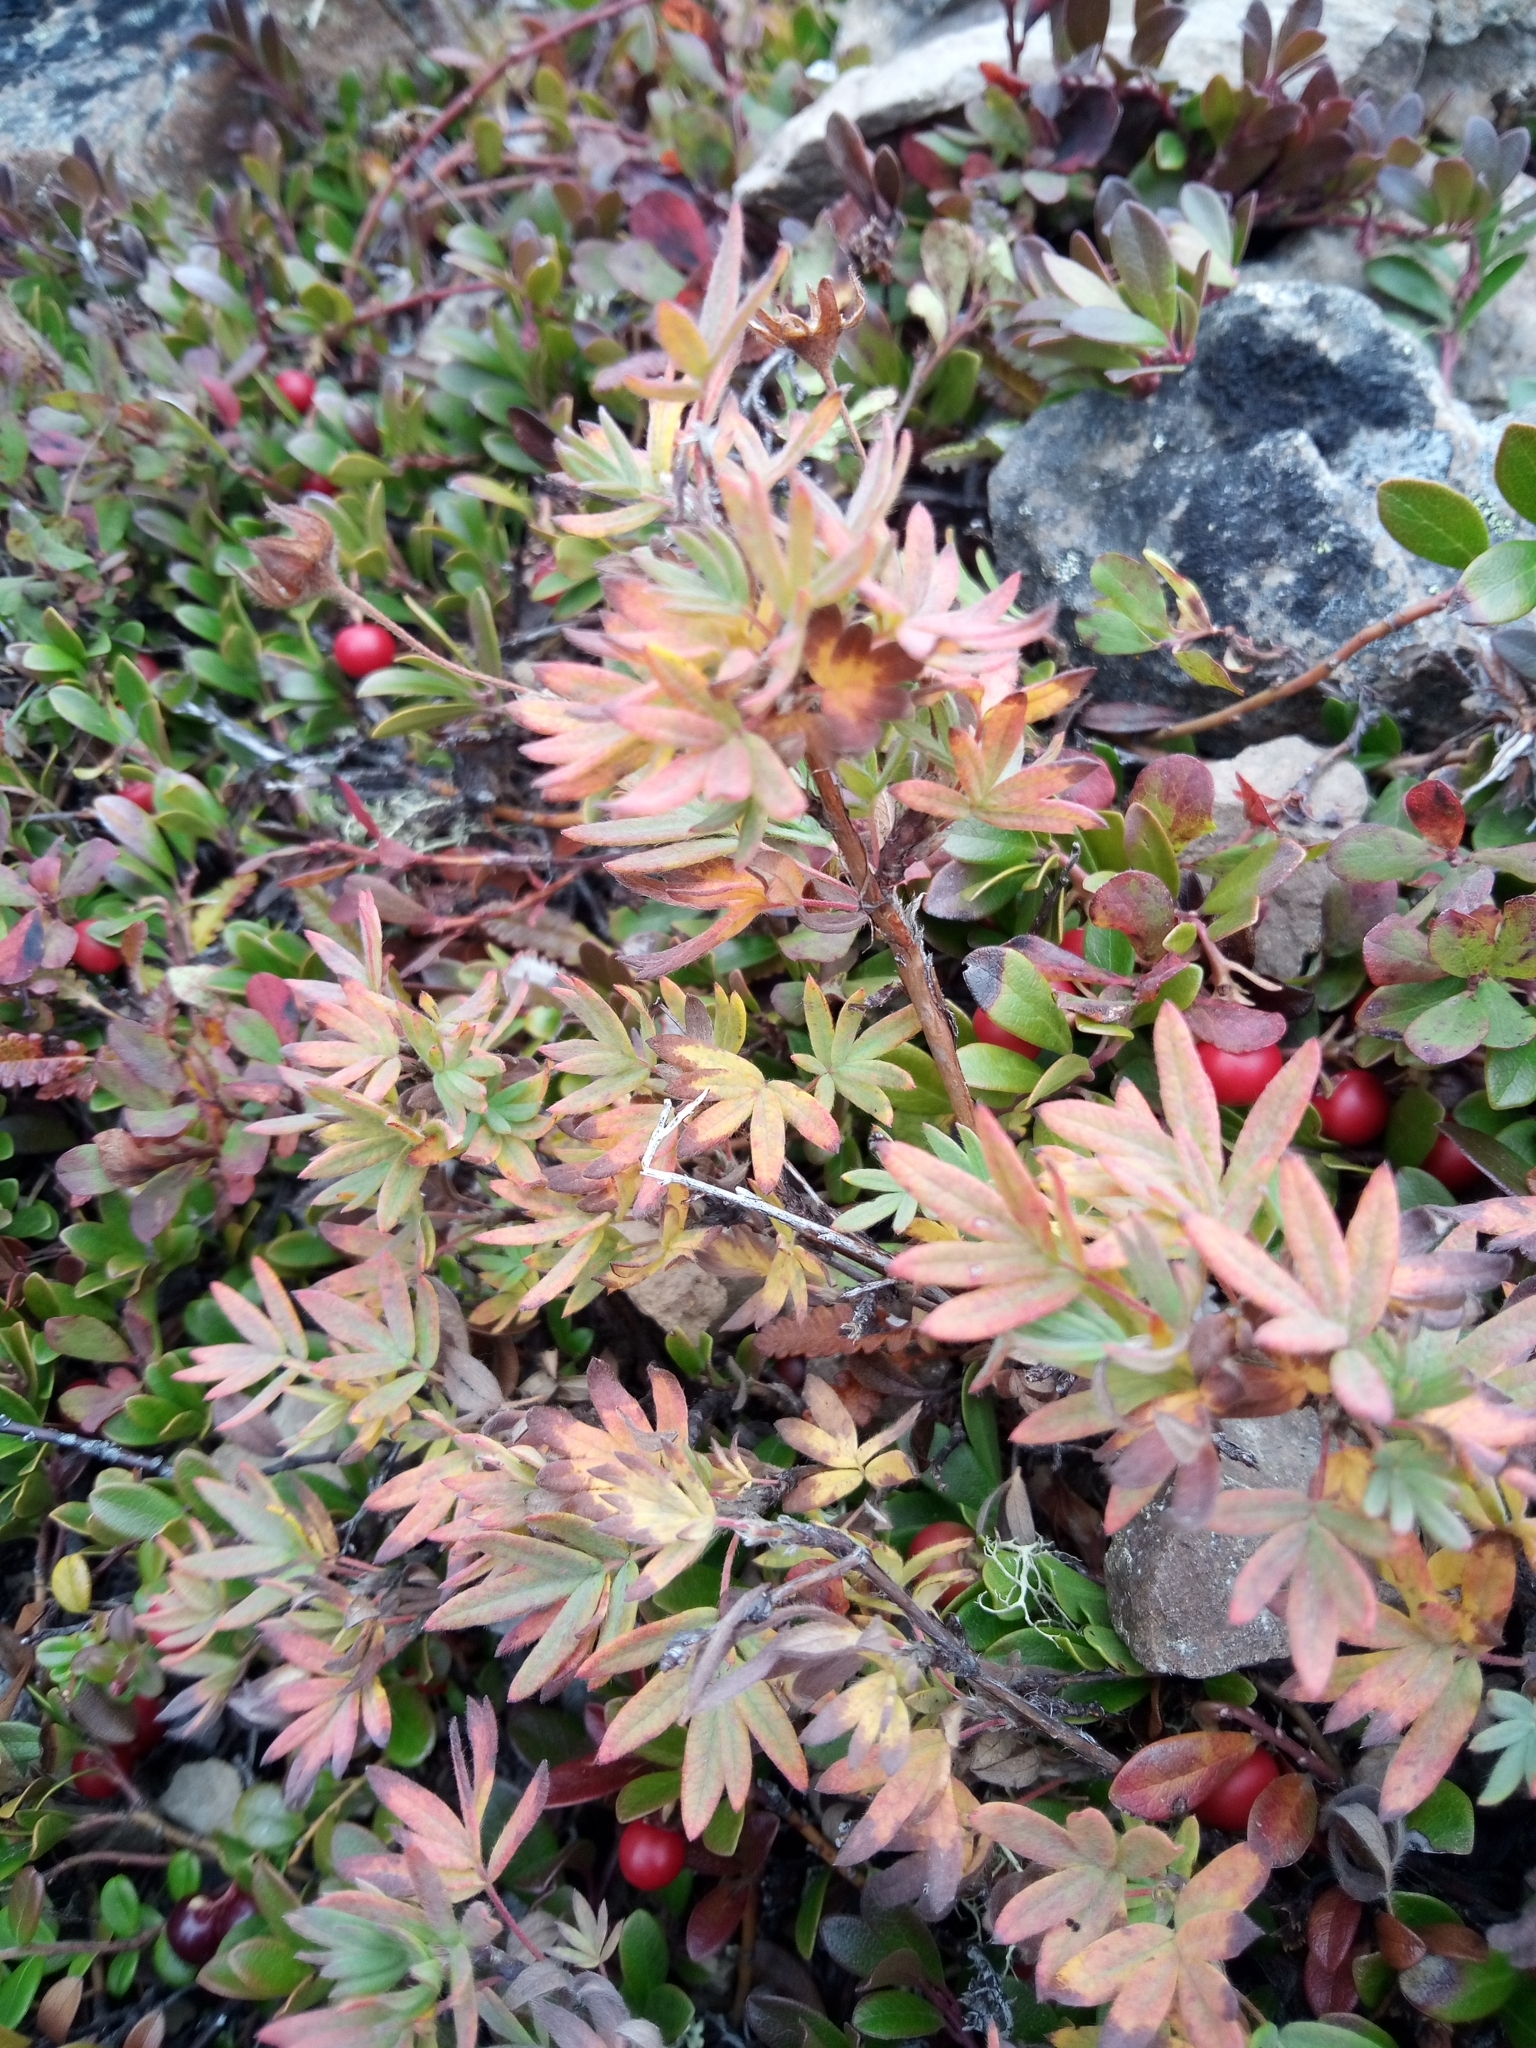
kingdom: Plantae
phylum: Tracheophyta
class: Magnoliopsida
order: Rosales
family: Rosaceae
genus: Dasiphora
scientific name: Dasiphora fruticosa
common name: Shrubby cinquefoil
